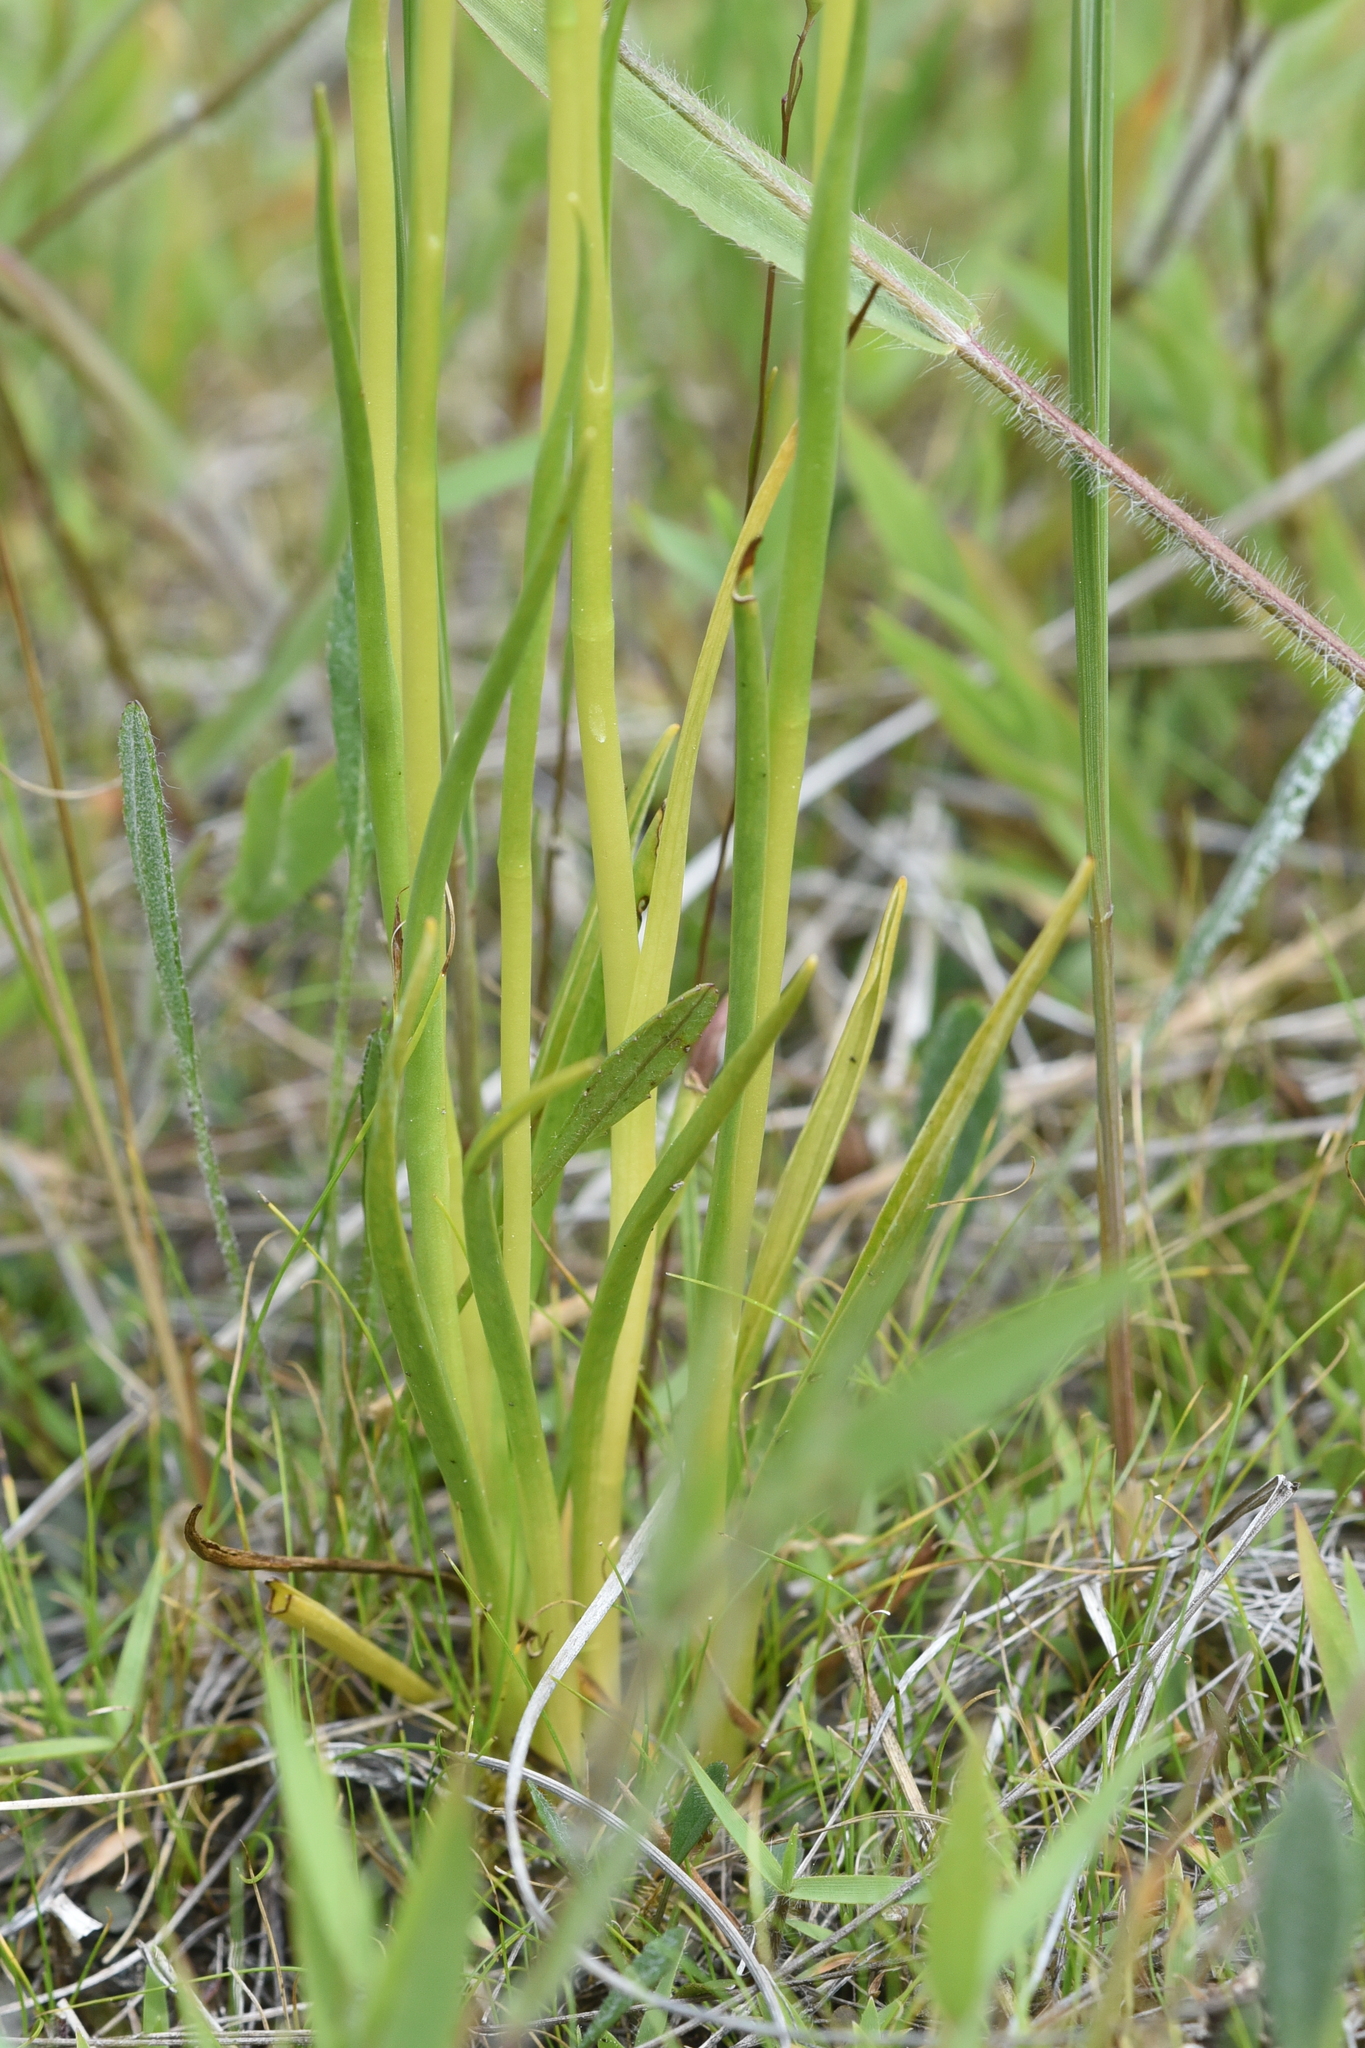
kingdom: Plantae
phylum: Tracheophyta
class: Liliopsida
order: Asparagales
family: Orchidaceae
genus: Spiranthes
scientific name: Spiranthes romanzoffiana
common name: Irish lady's-tresses
